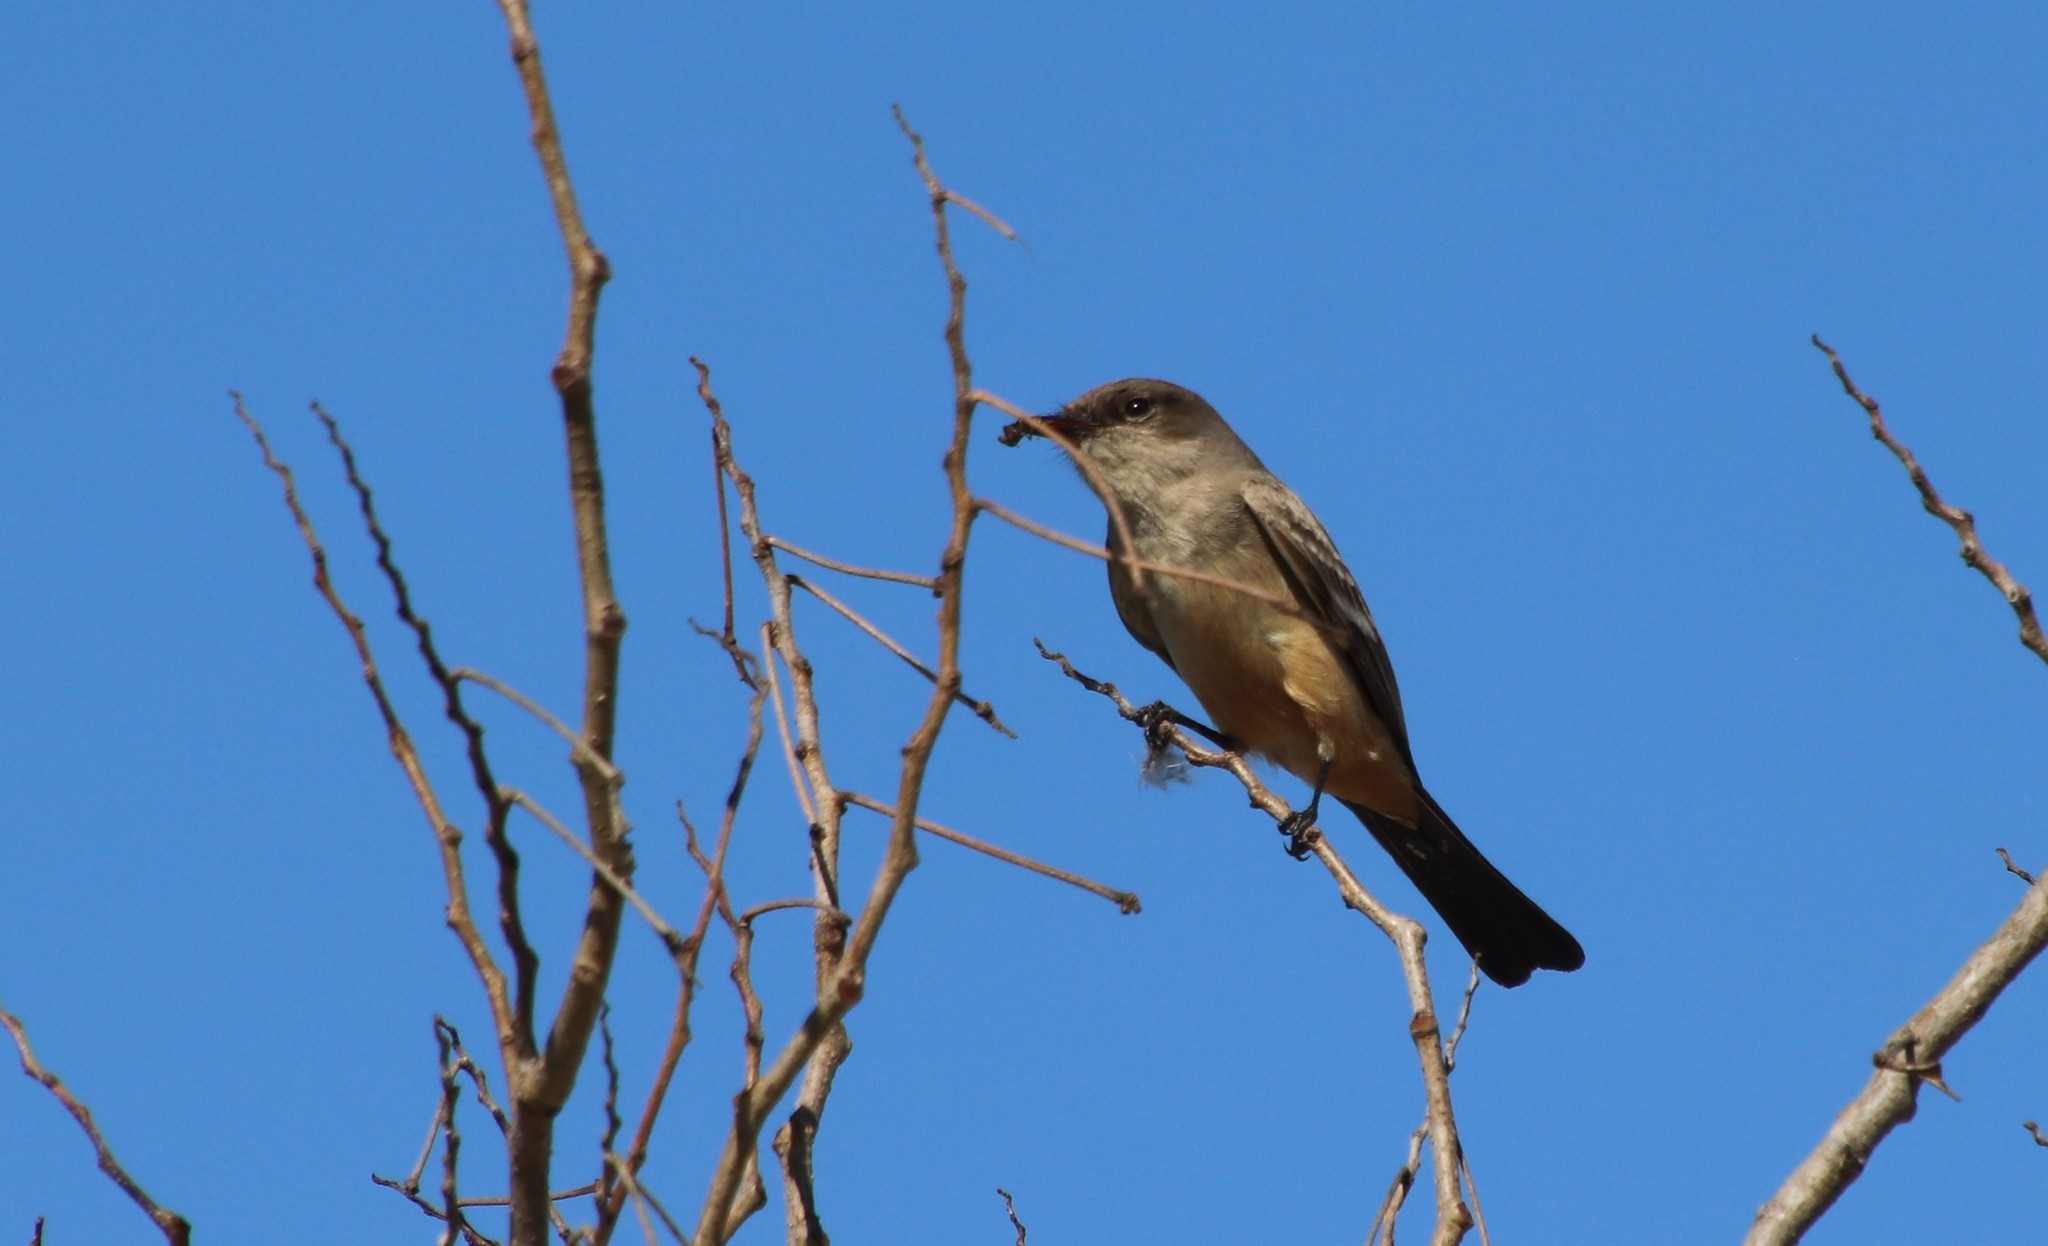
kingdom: Animalia
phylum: Chordata
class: Aves
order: Passeriformes
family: Tyrannidae
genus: Sayornis
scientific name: Sayornis saya
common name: Say's phoebe
